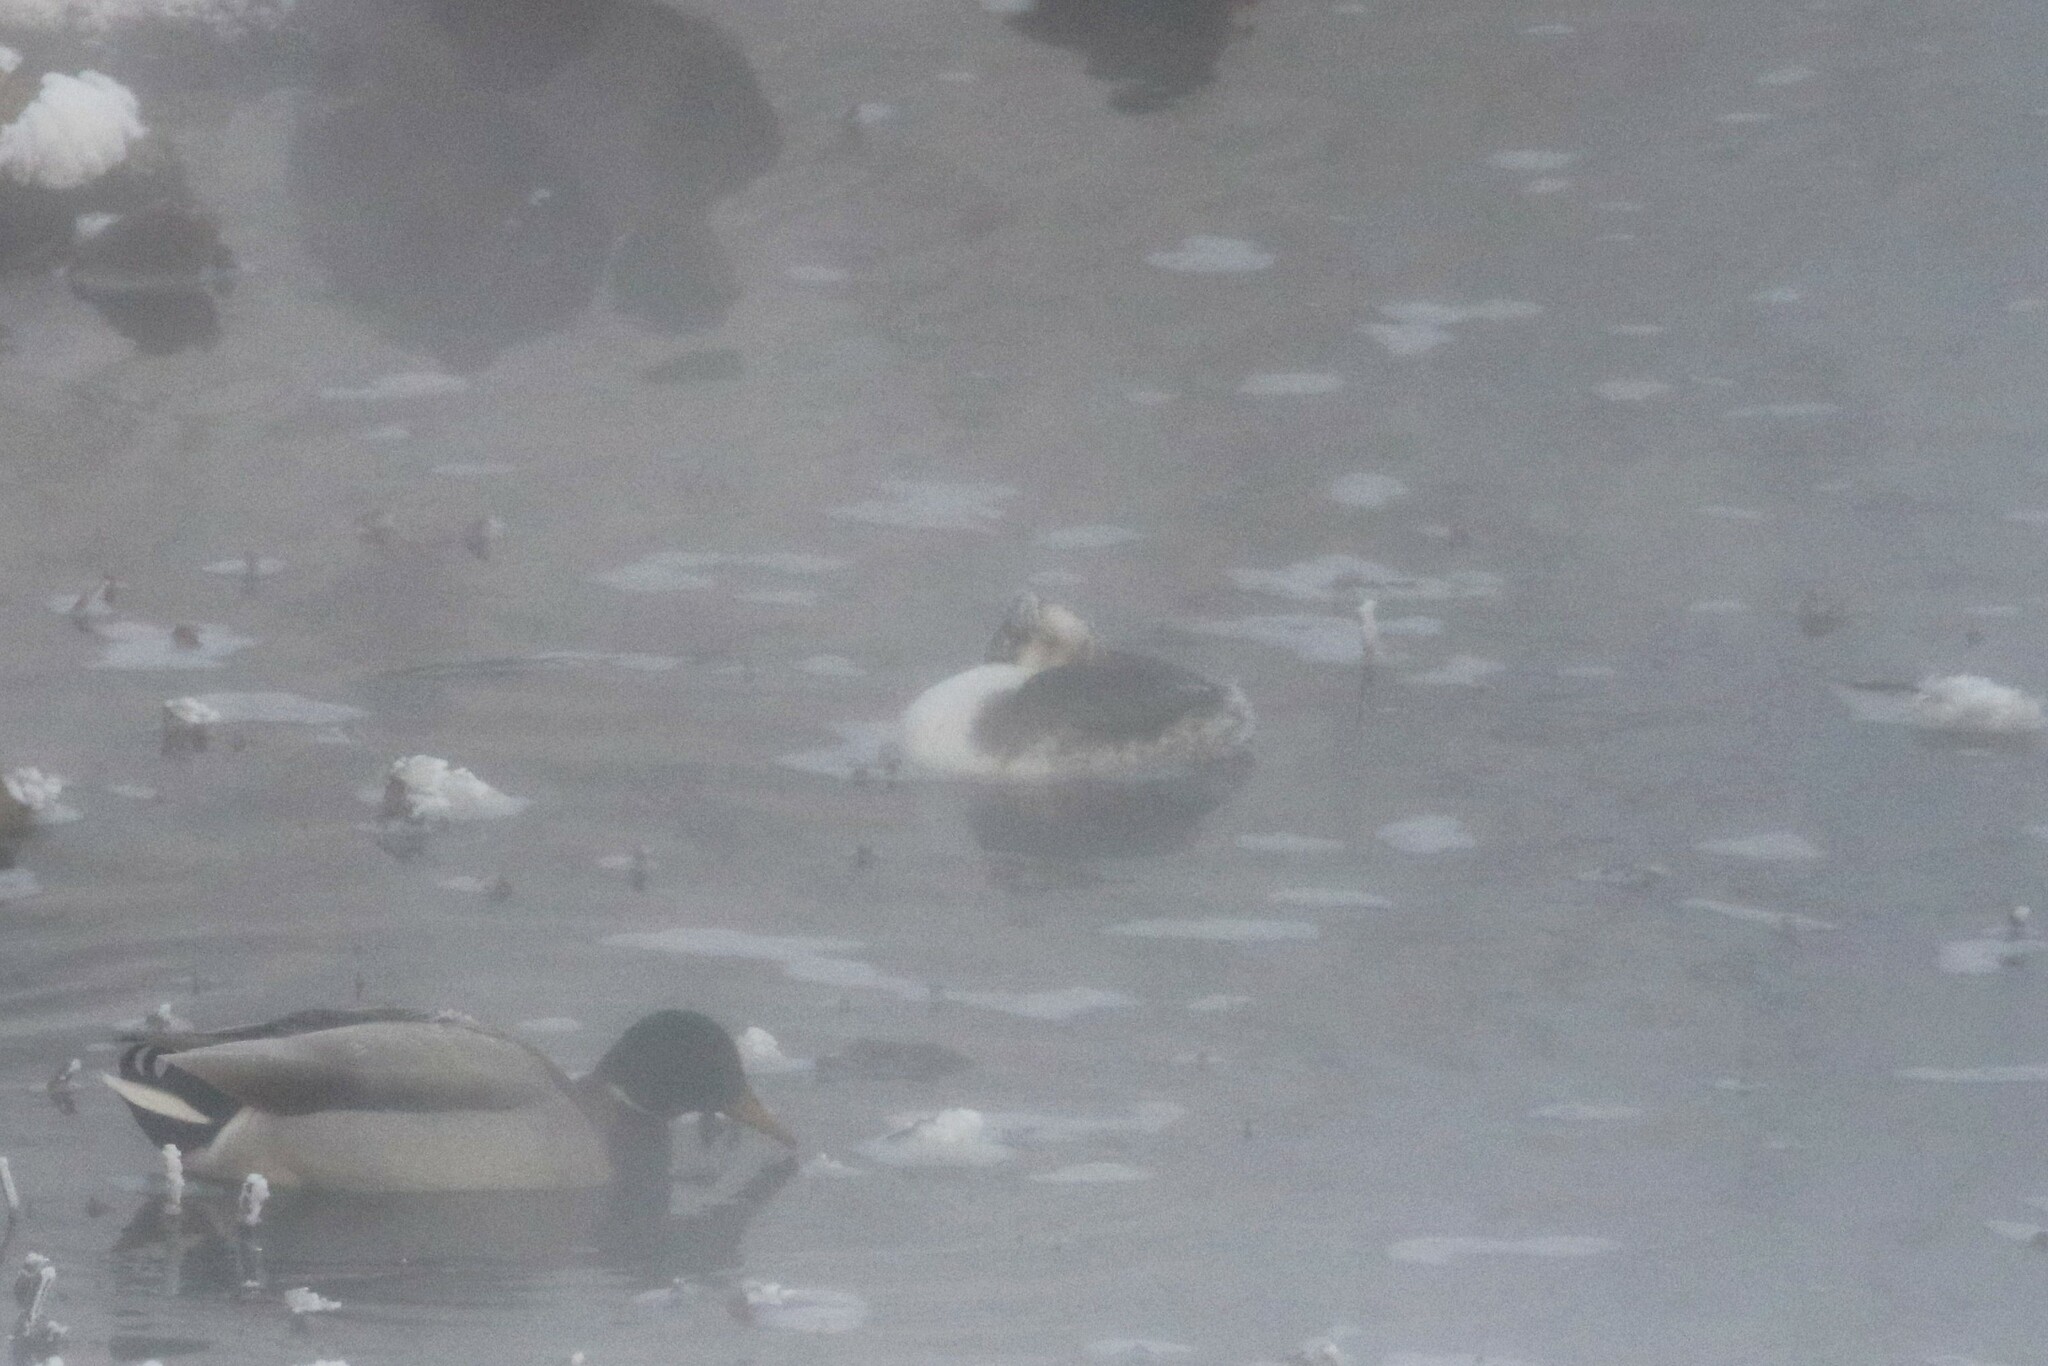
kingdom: Animalia
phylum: Chordata
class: Aves
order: Podicipediformes
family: Podicipedidae
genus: Podiceps
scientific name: Podiceps cristatus
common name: Great crested grebe
